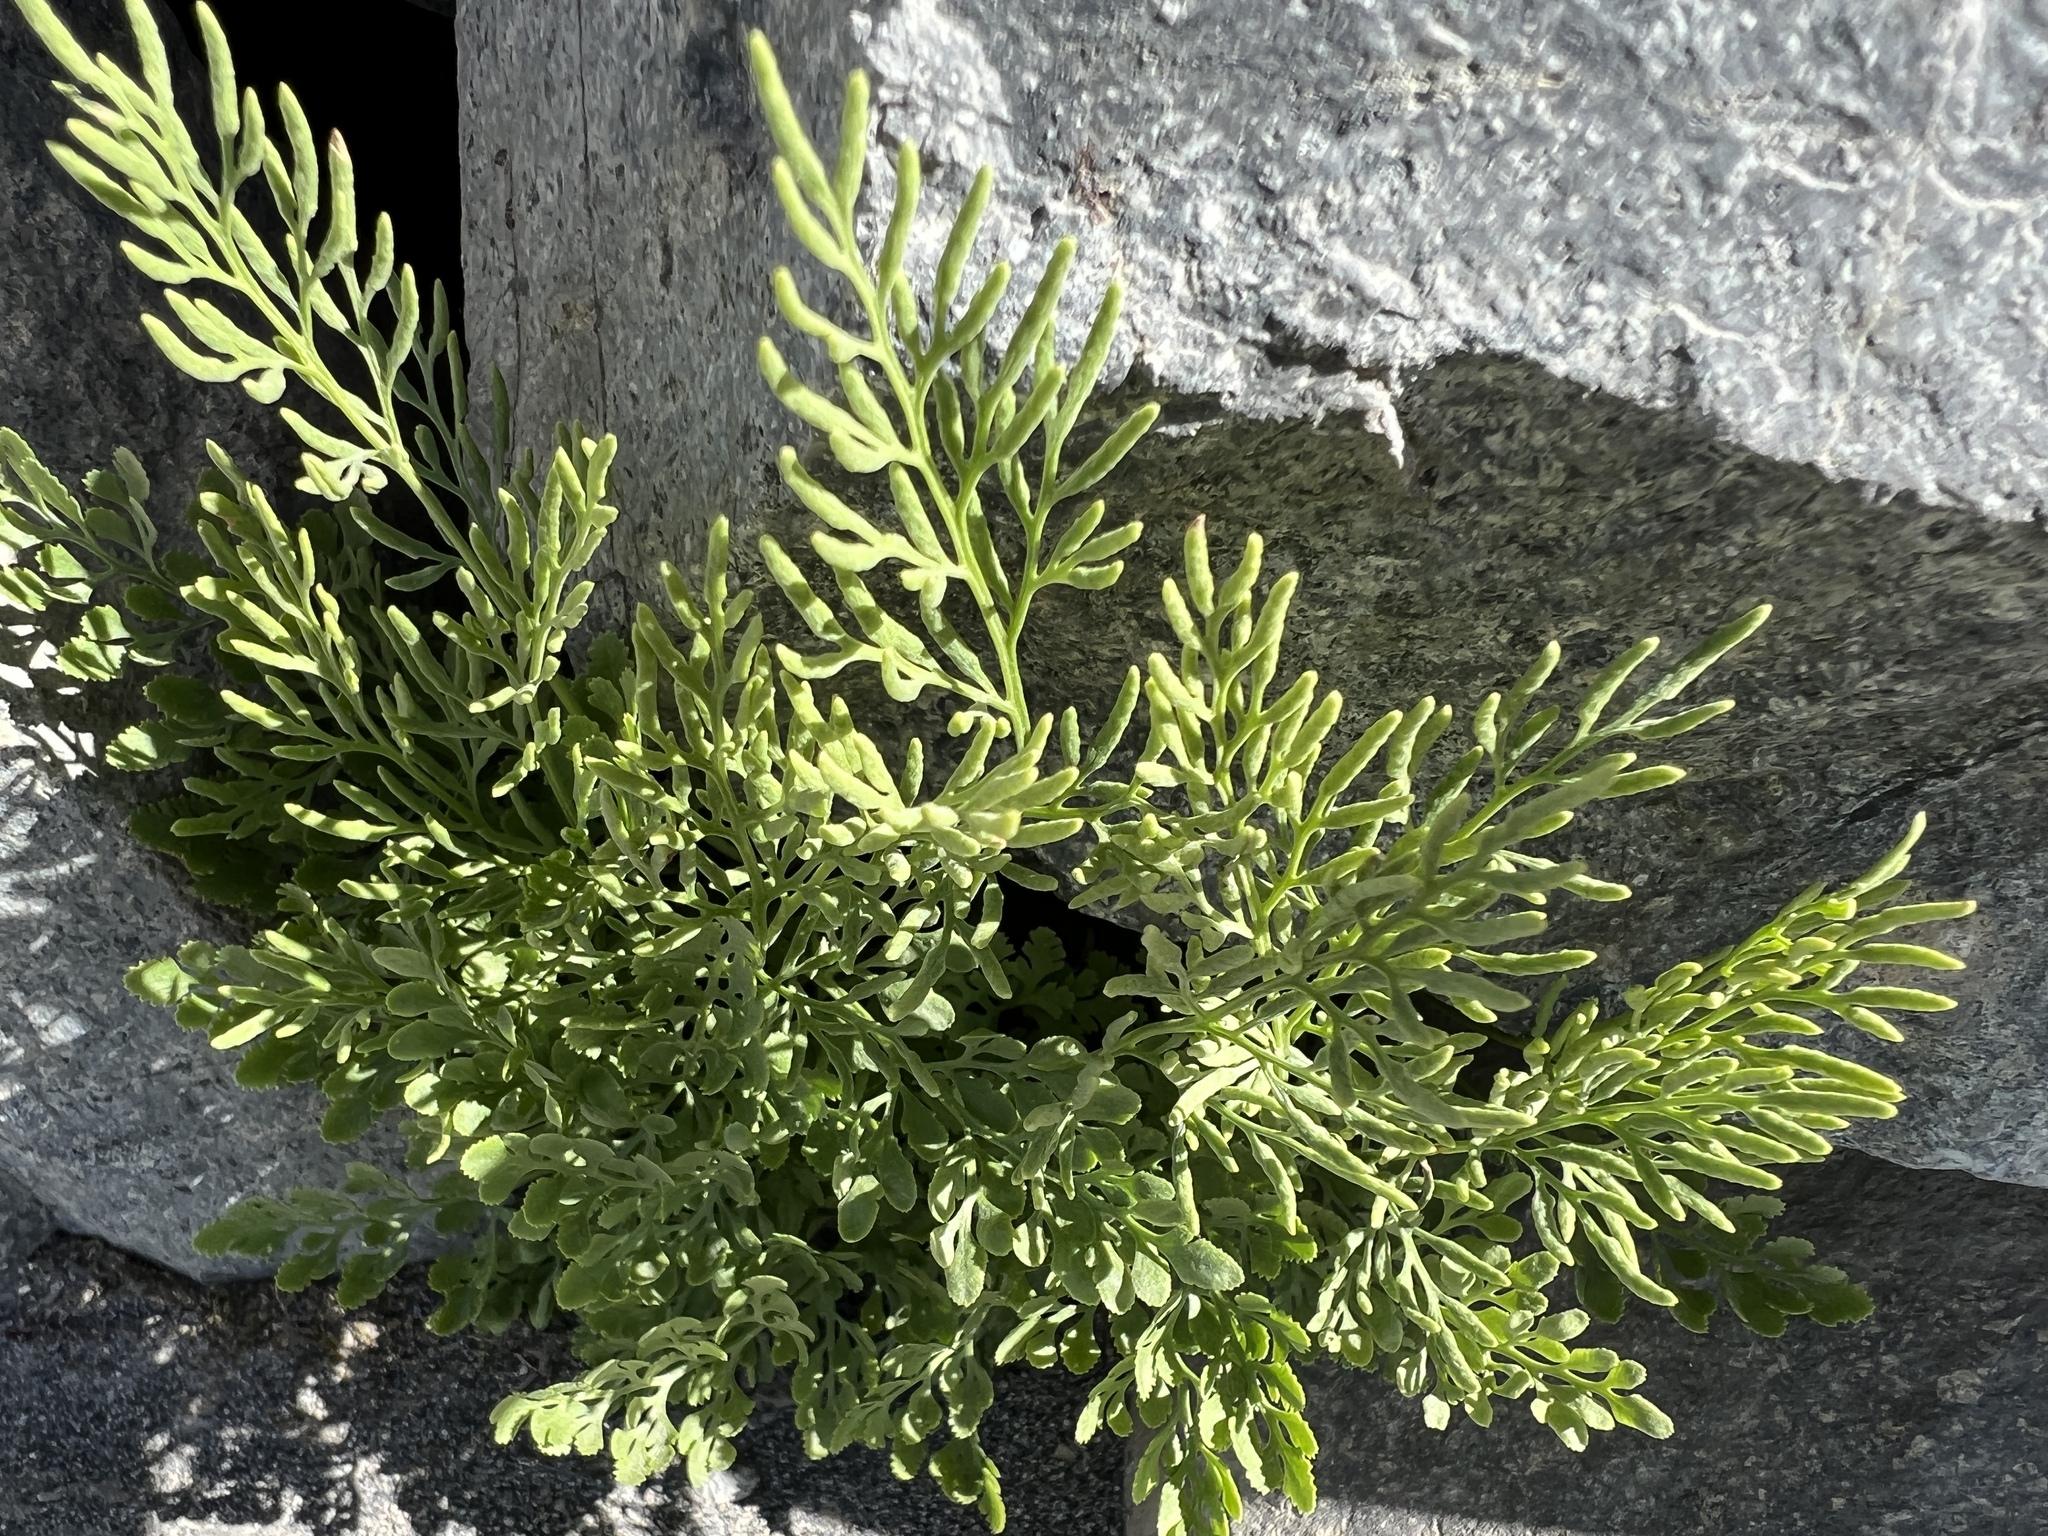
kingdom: Plantae
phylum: Tracheophyta
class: Polypodiopsida
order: Polypodiales
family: Pteridaceae
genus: Cryptogramma
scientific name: Cryptogramma cascadensis
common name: Cascade parsley fern
